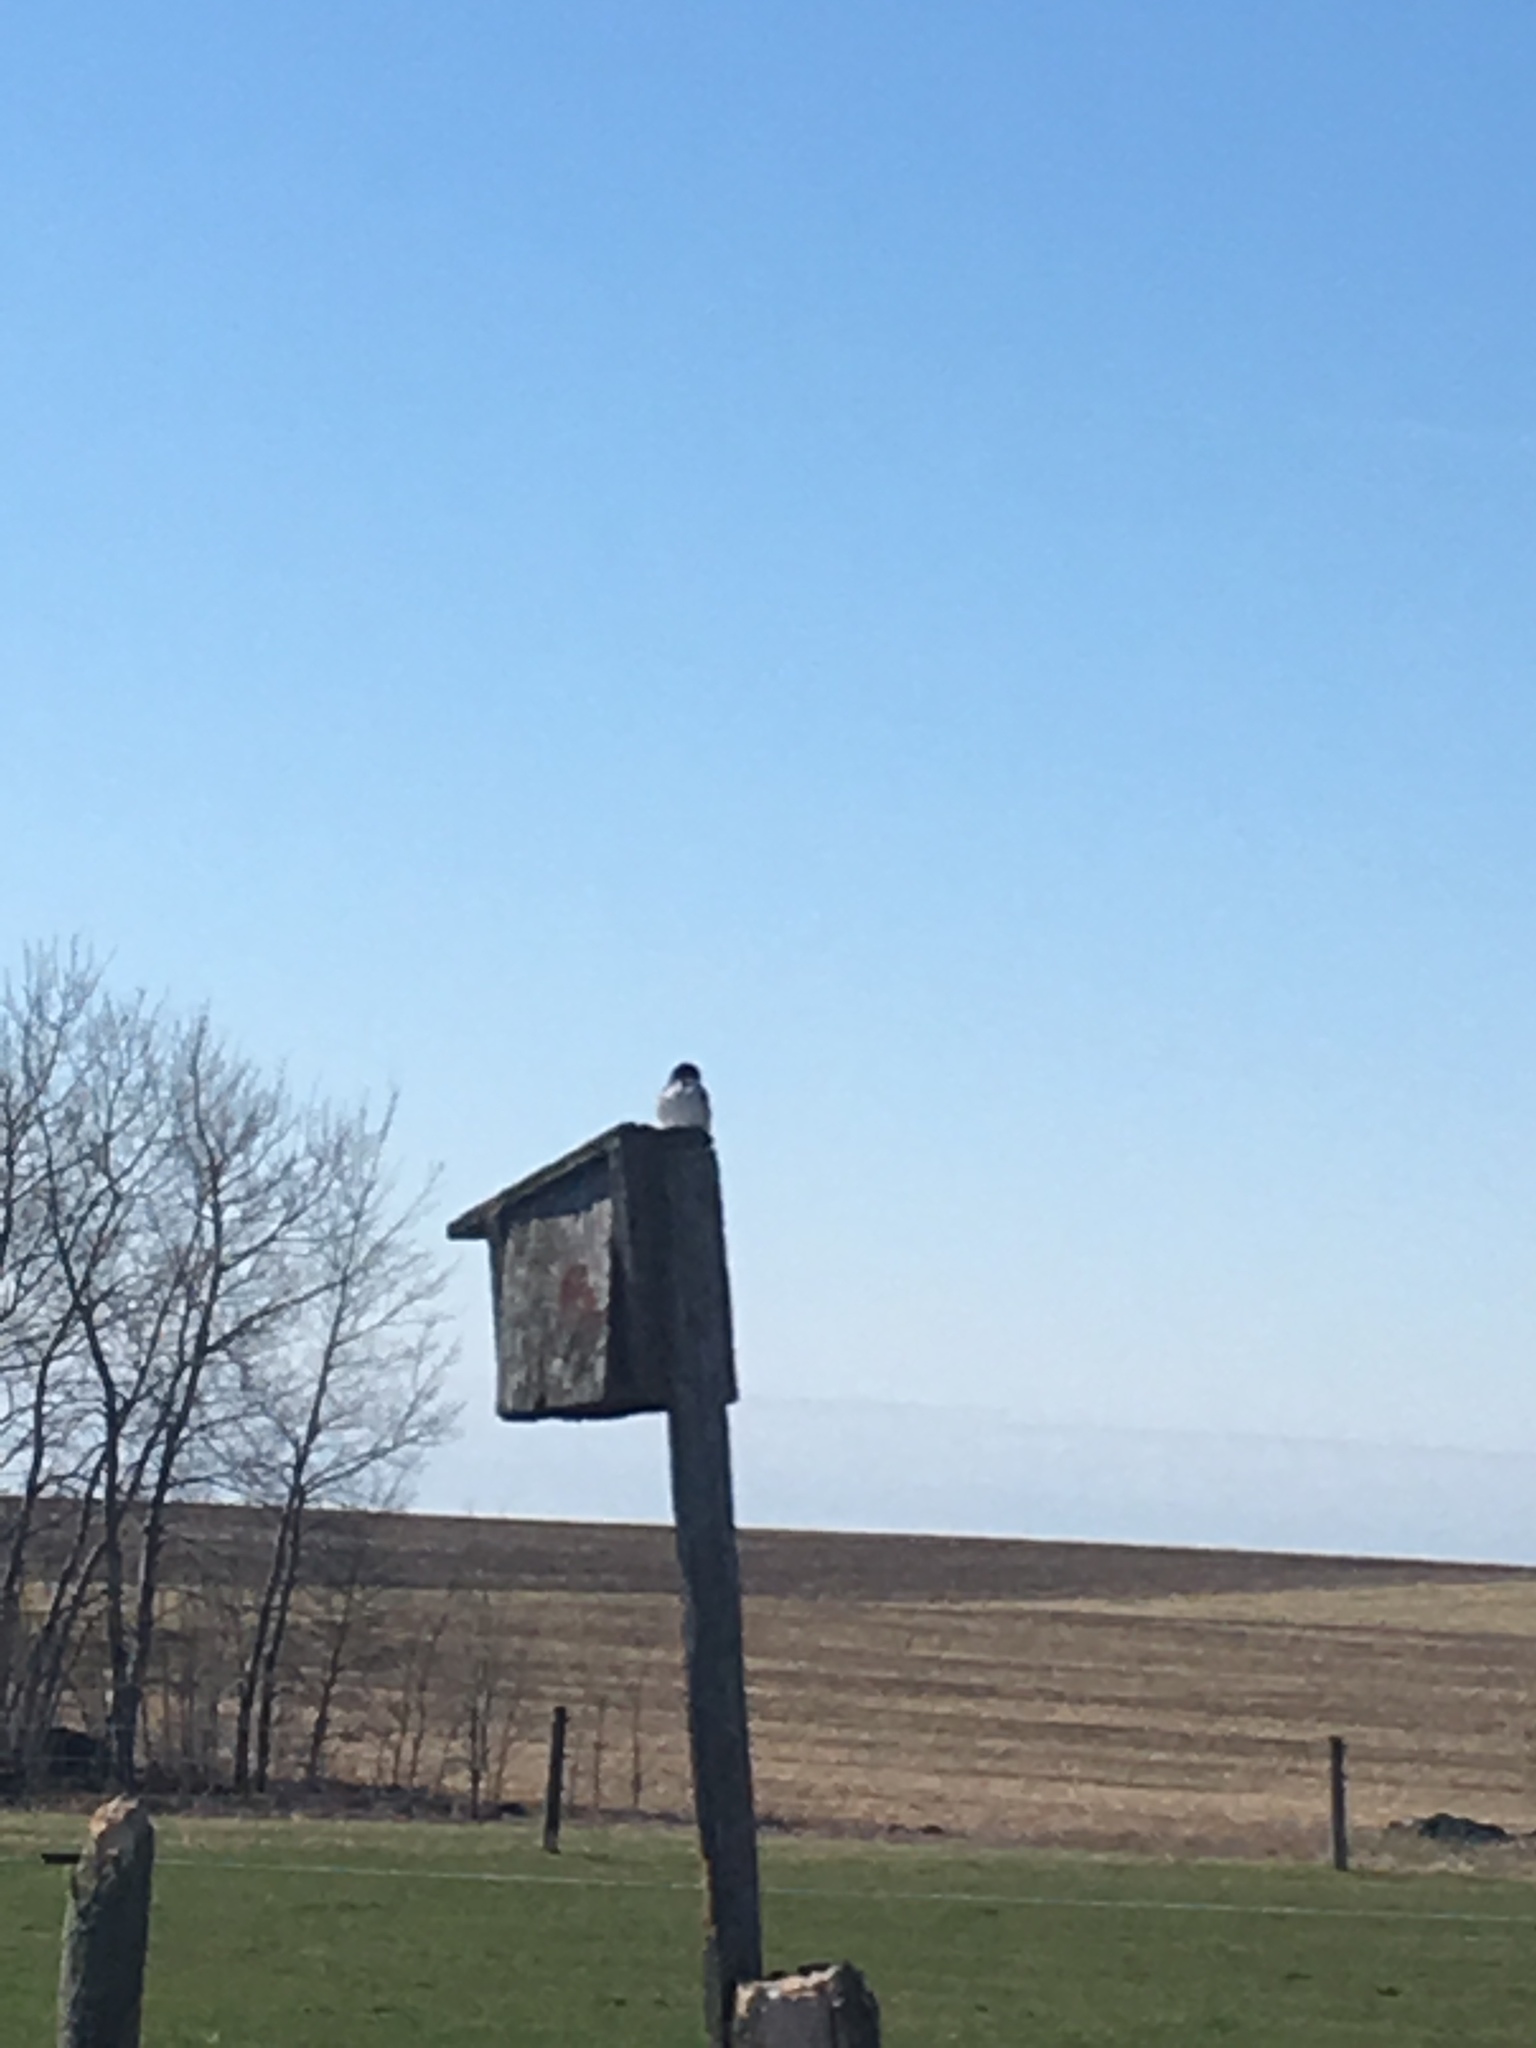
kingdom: Animalia
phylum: Chordata
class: Aves
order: Passeriformes
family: Hirundinidae
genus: Tachycineta
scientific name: Tachycineta bicolor
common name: Tree swallow
